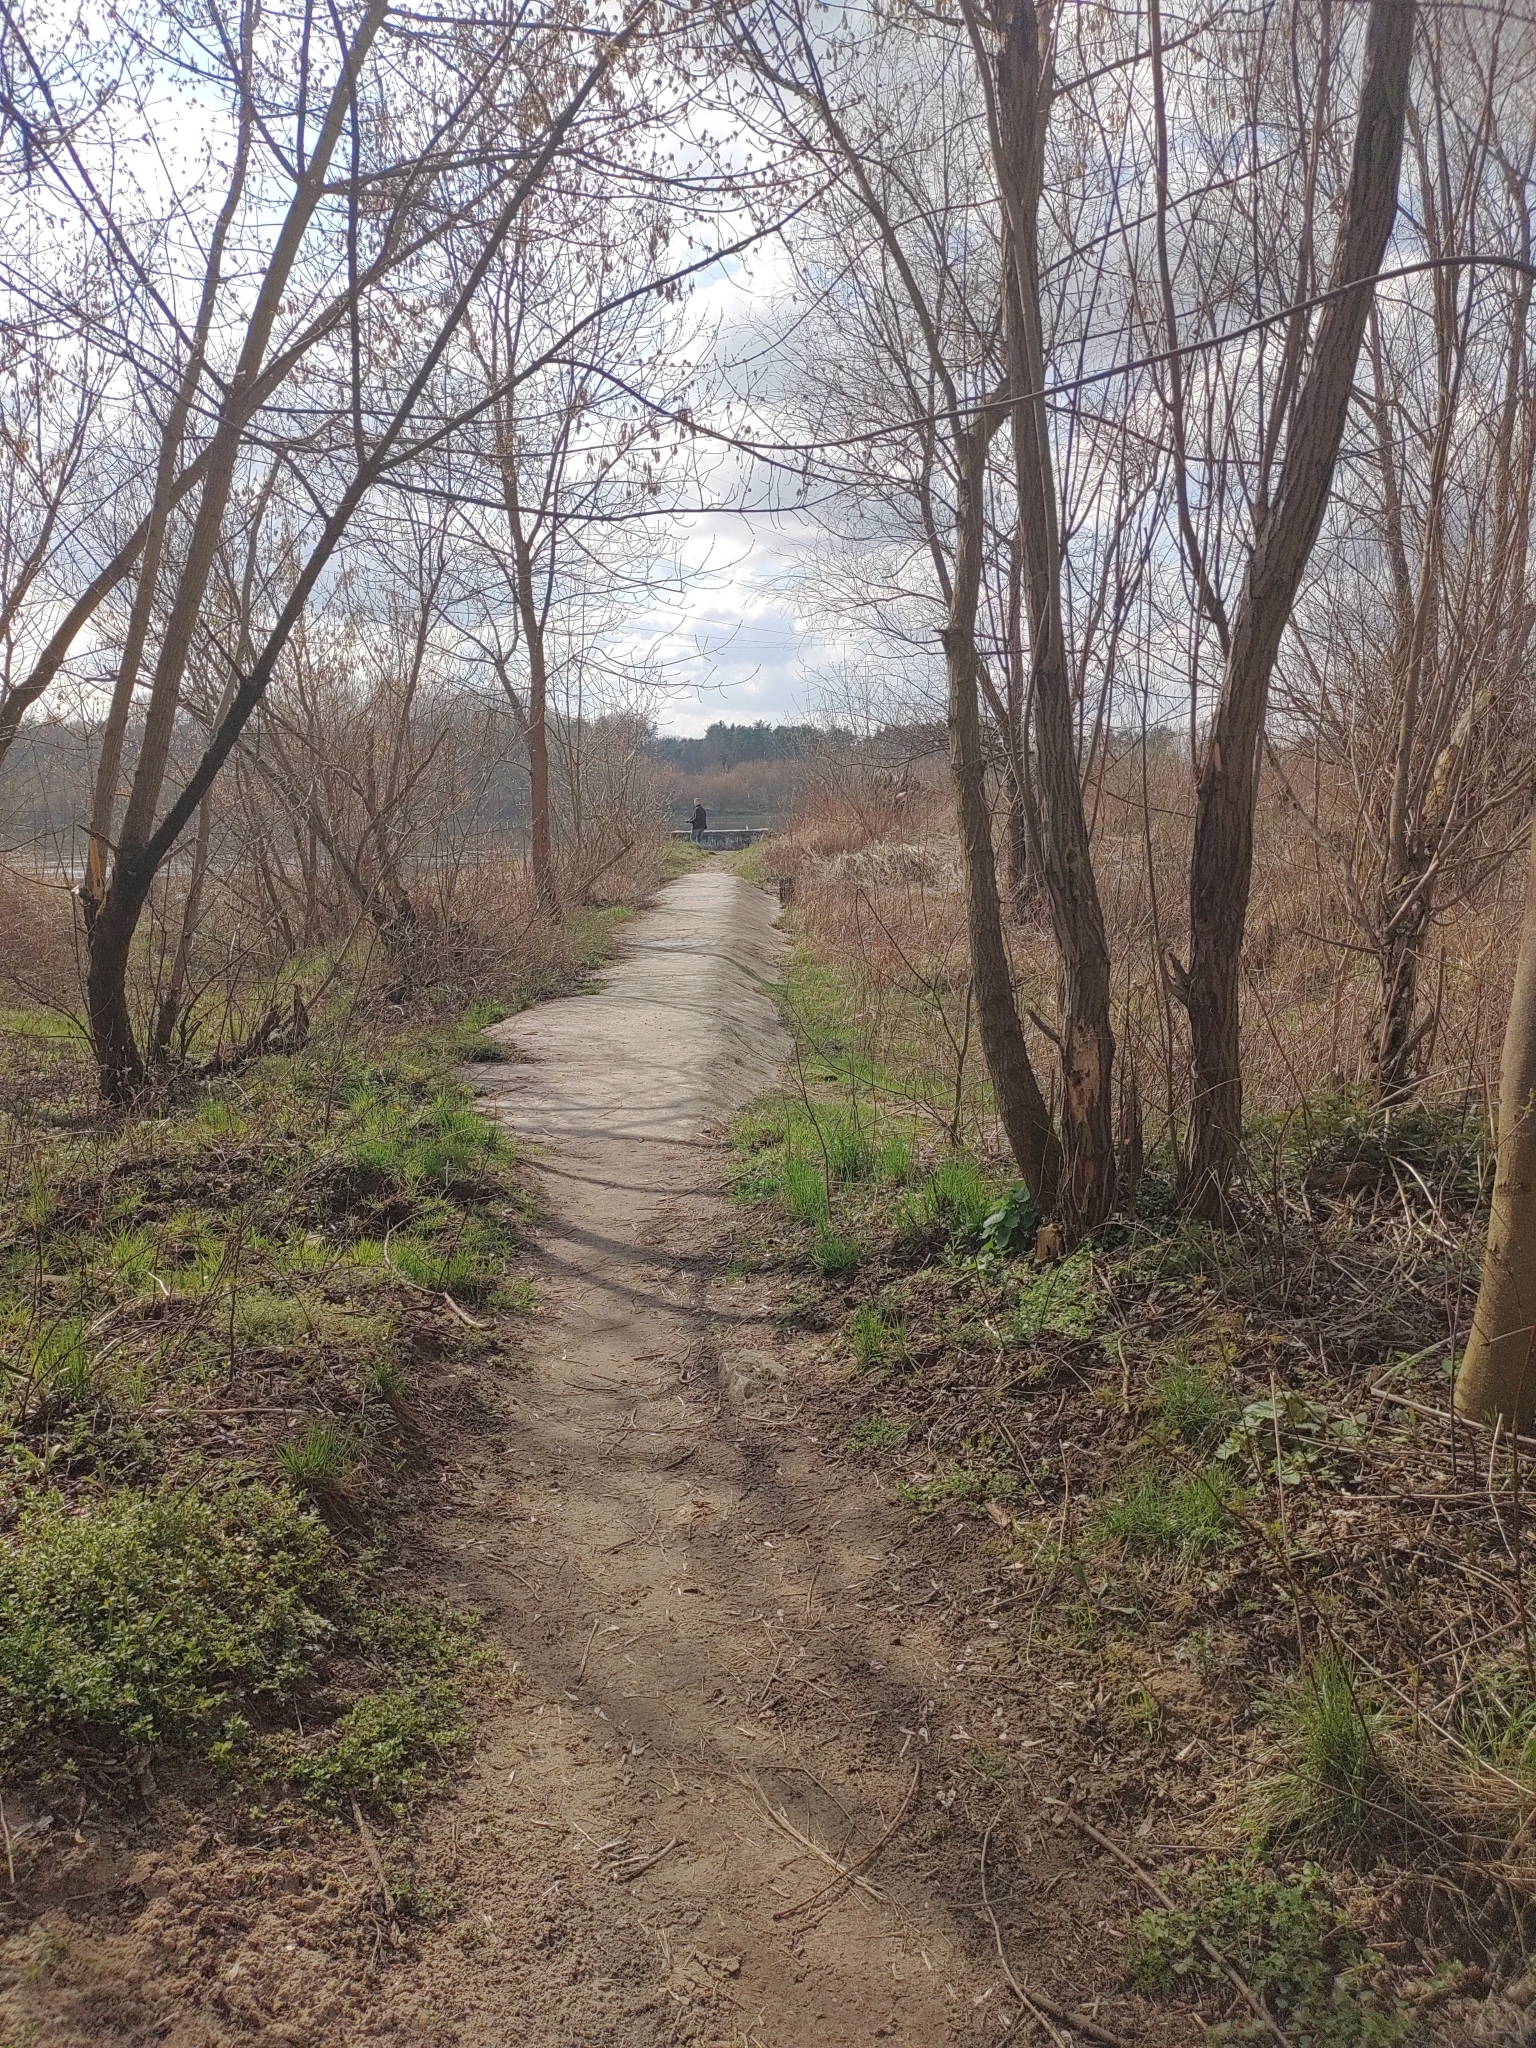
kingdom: Animalia
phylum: Chordata
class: Aves
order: Passeriformes
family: Phylloscopidae
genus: Phylloscopus
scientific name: Phylloscopus collybita
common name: Common chiffchaff
